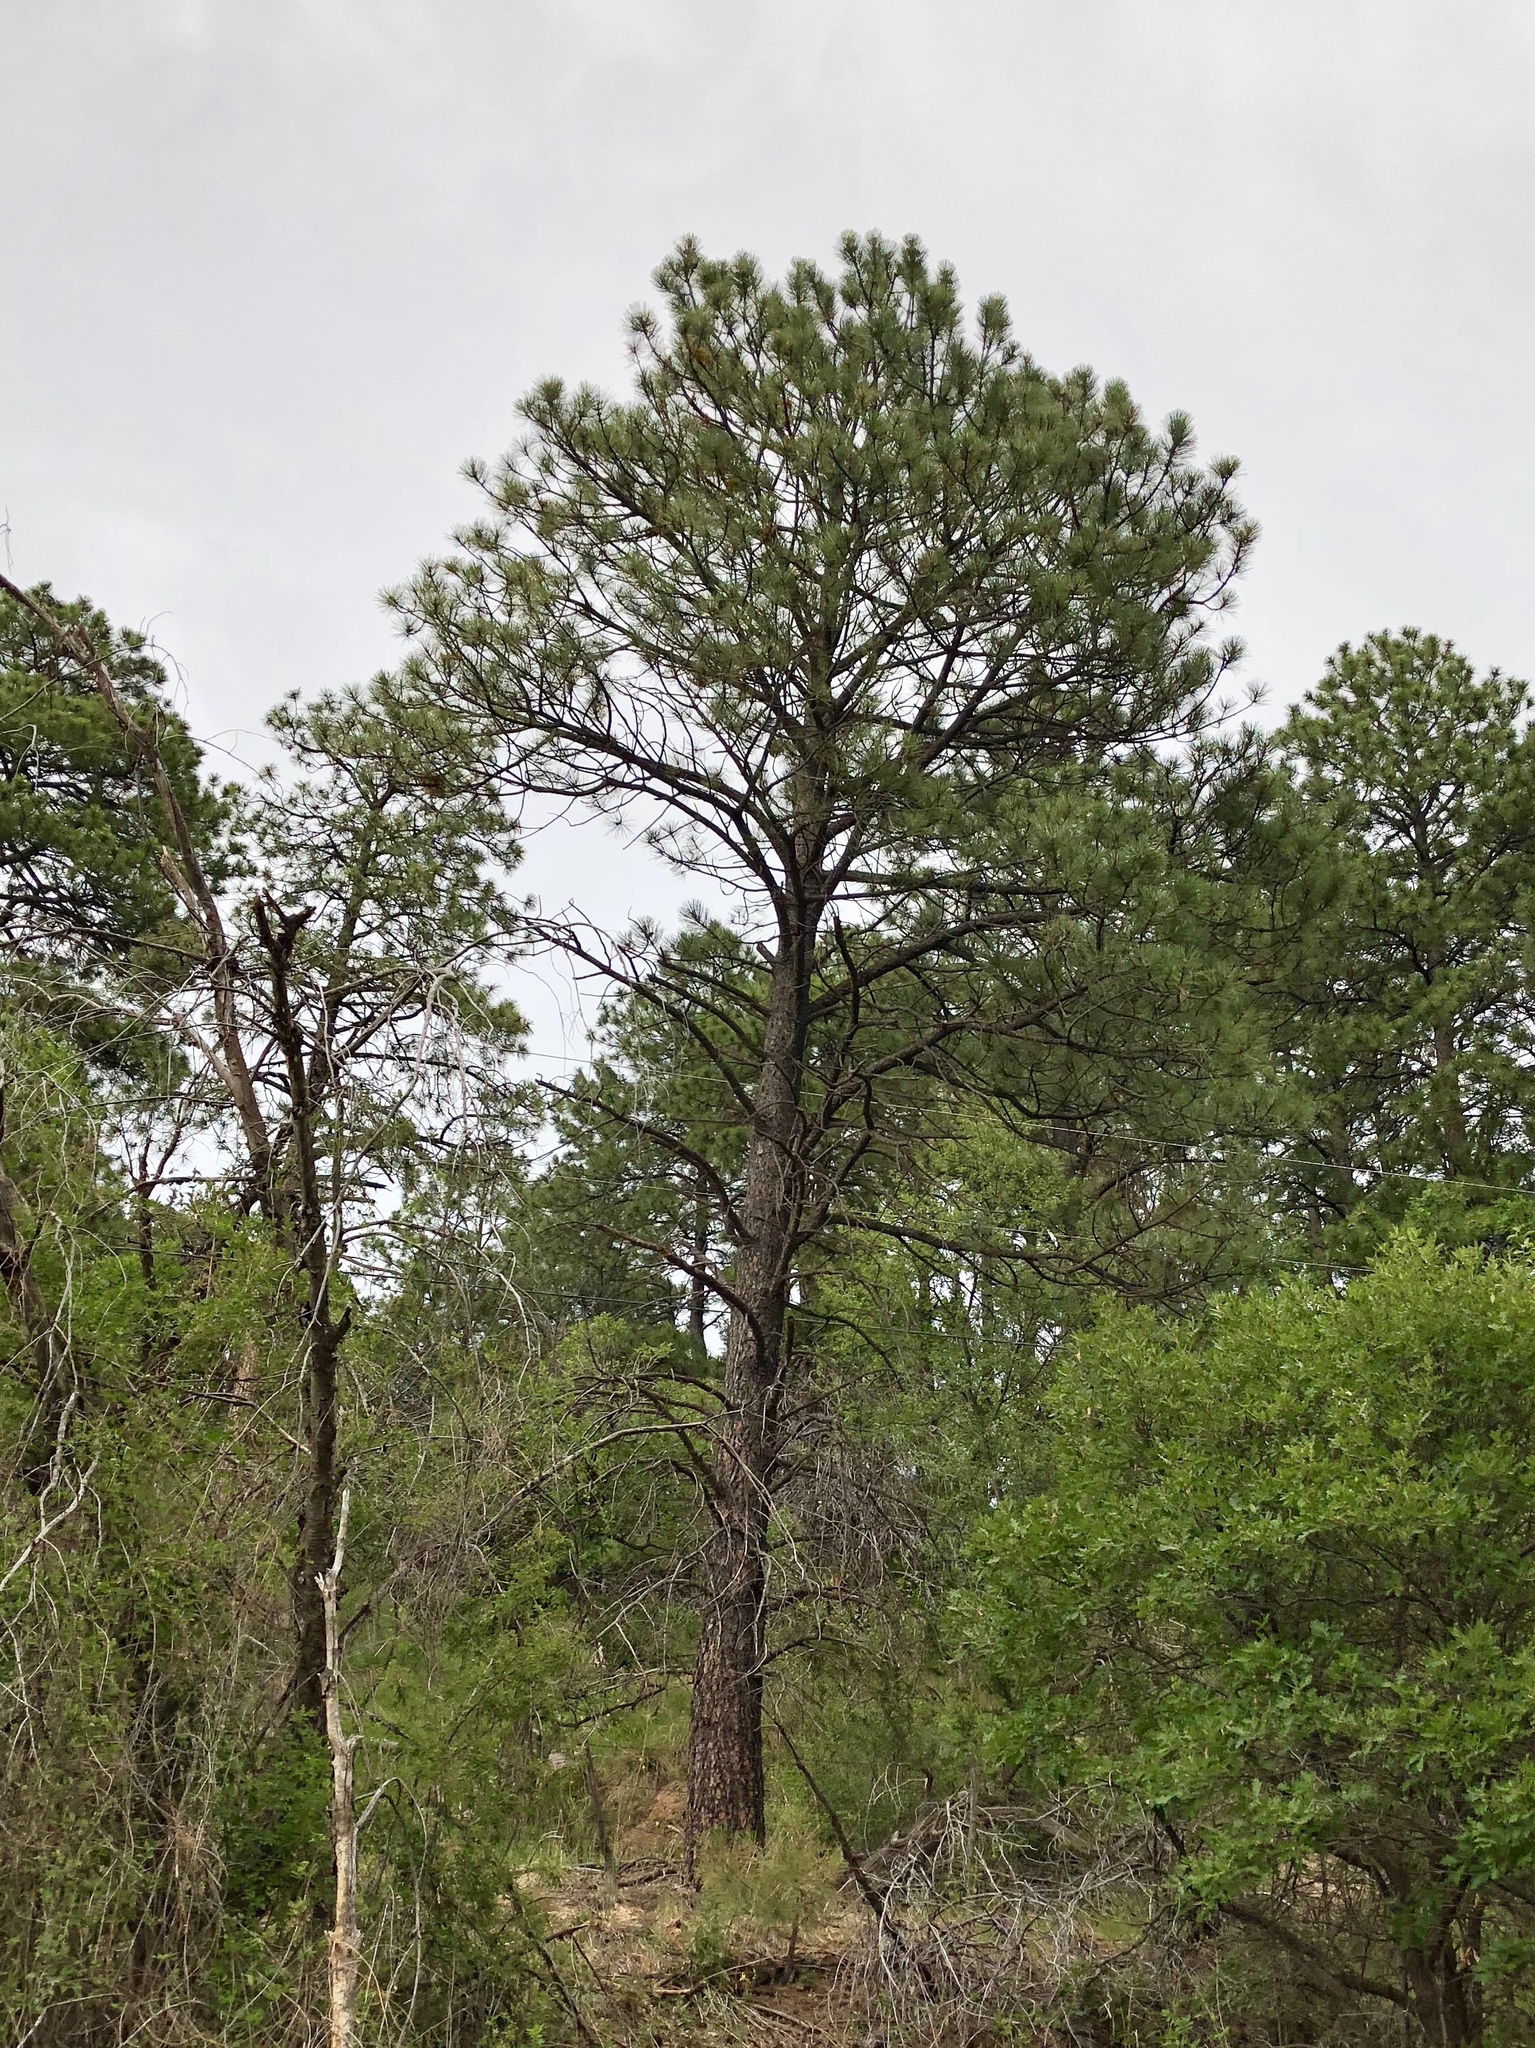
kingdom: Plantae
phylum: Tracheophyta
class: Pinopsida
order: Pinales
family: Pinaceae
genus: Pinus
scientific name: Pinus ponderosa
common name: Western yellow-pine
